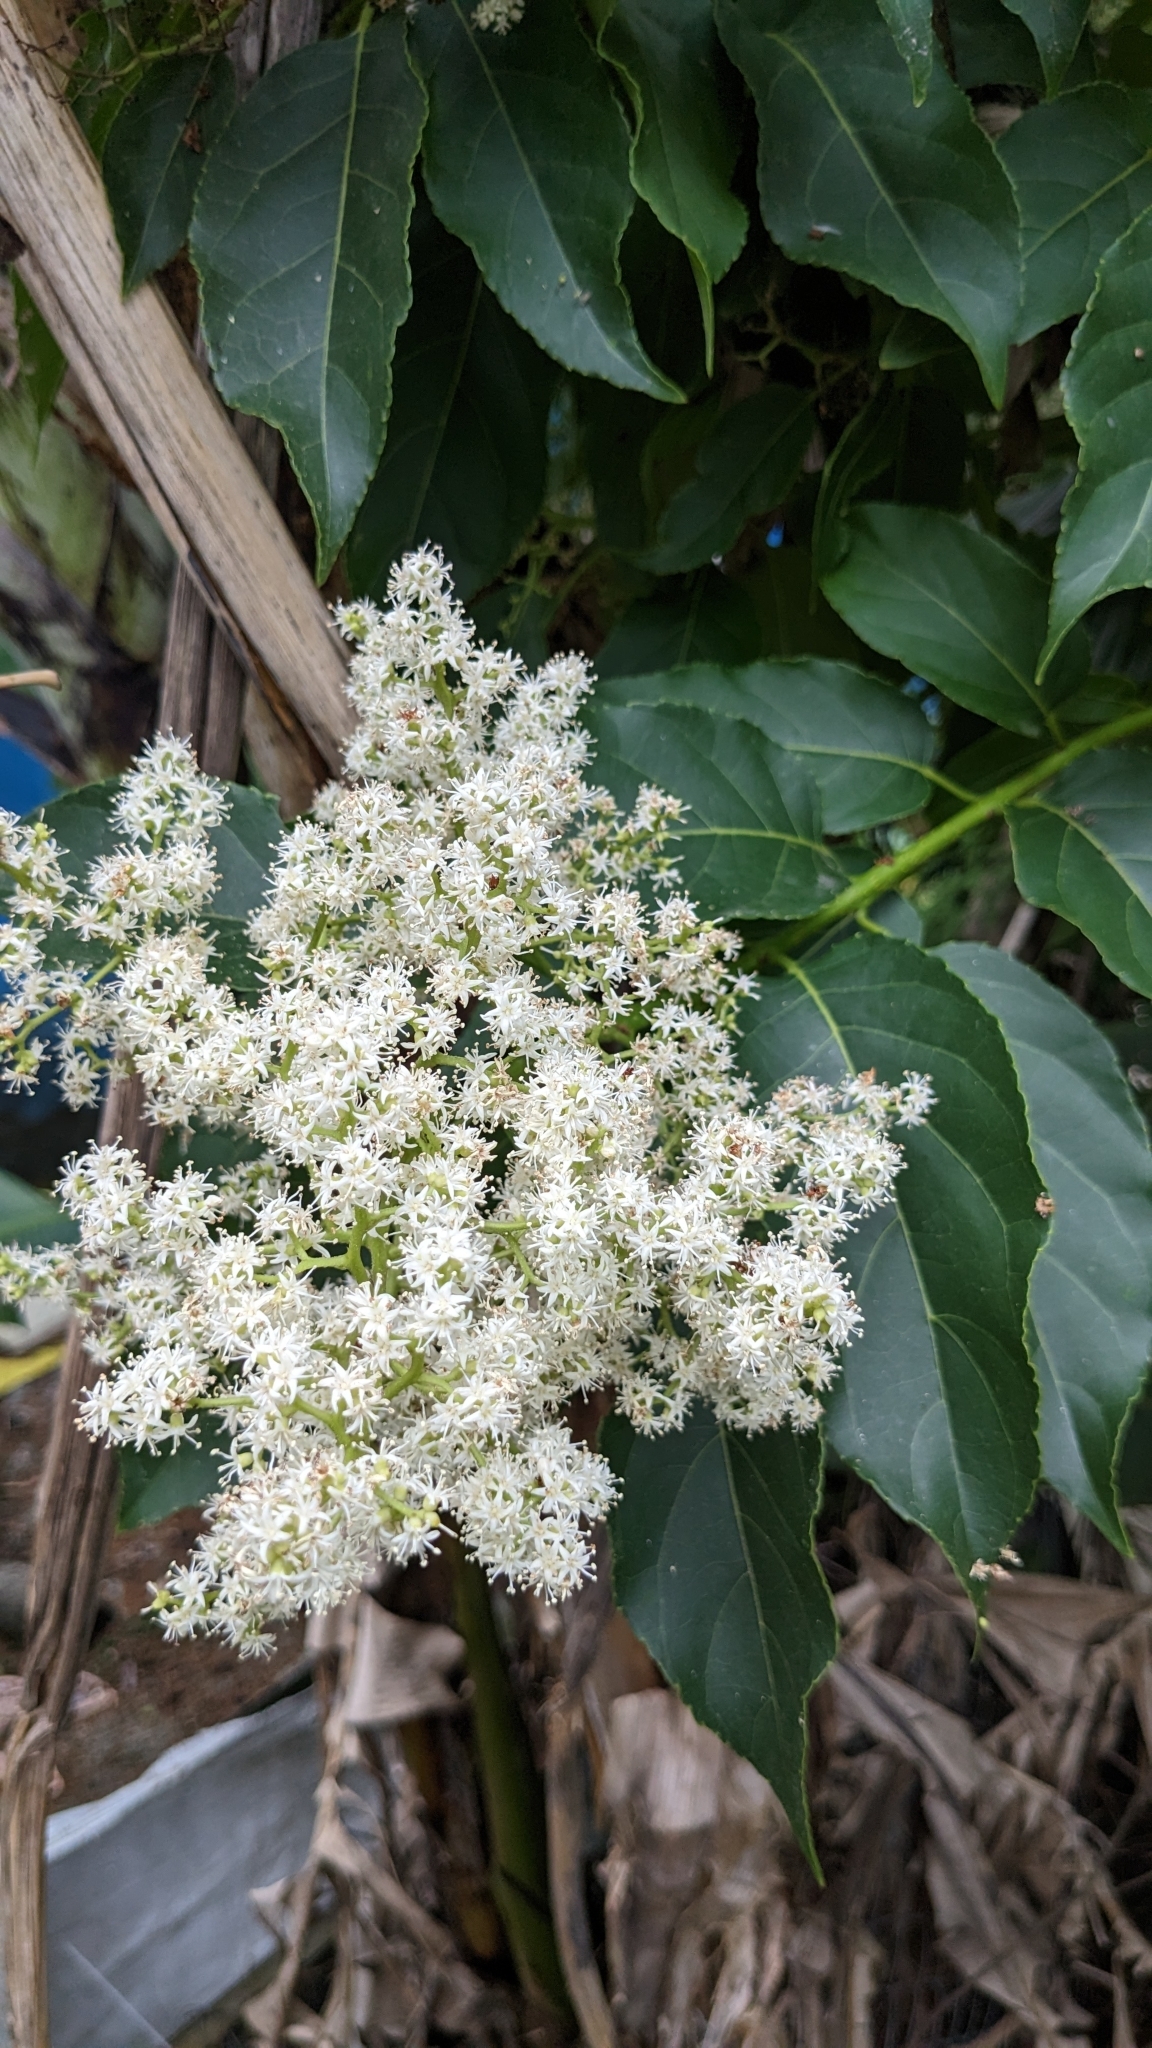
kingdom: Plantae
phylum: Tracheophyta
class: Magnoliopsida
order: Boraginales
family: Ehretiaceae
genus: Ehretia
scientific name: Ehretia acuminata
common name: Kodo wood
